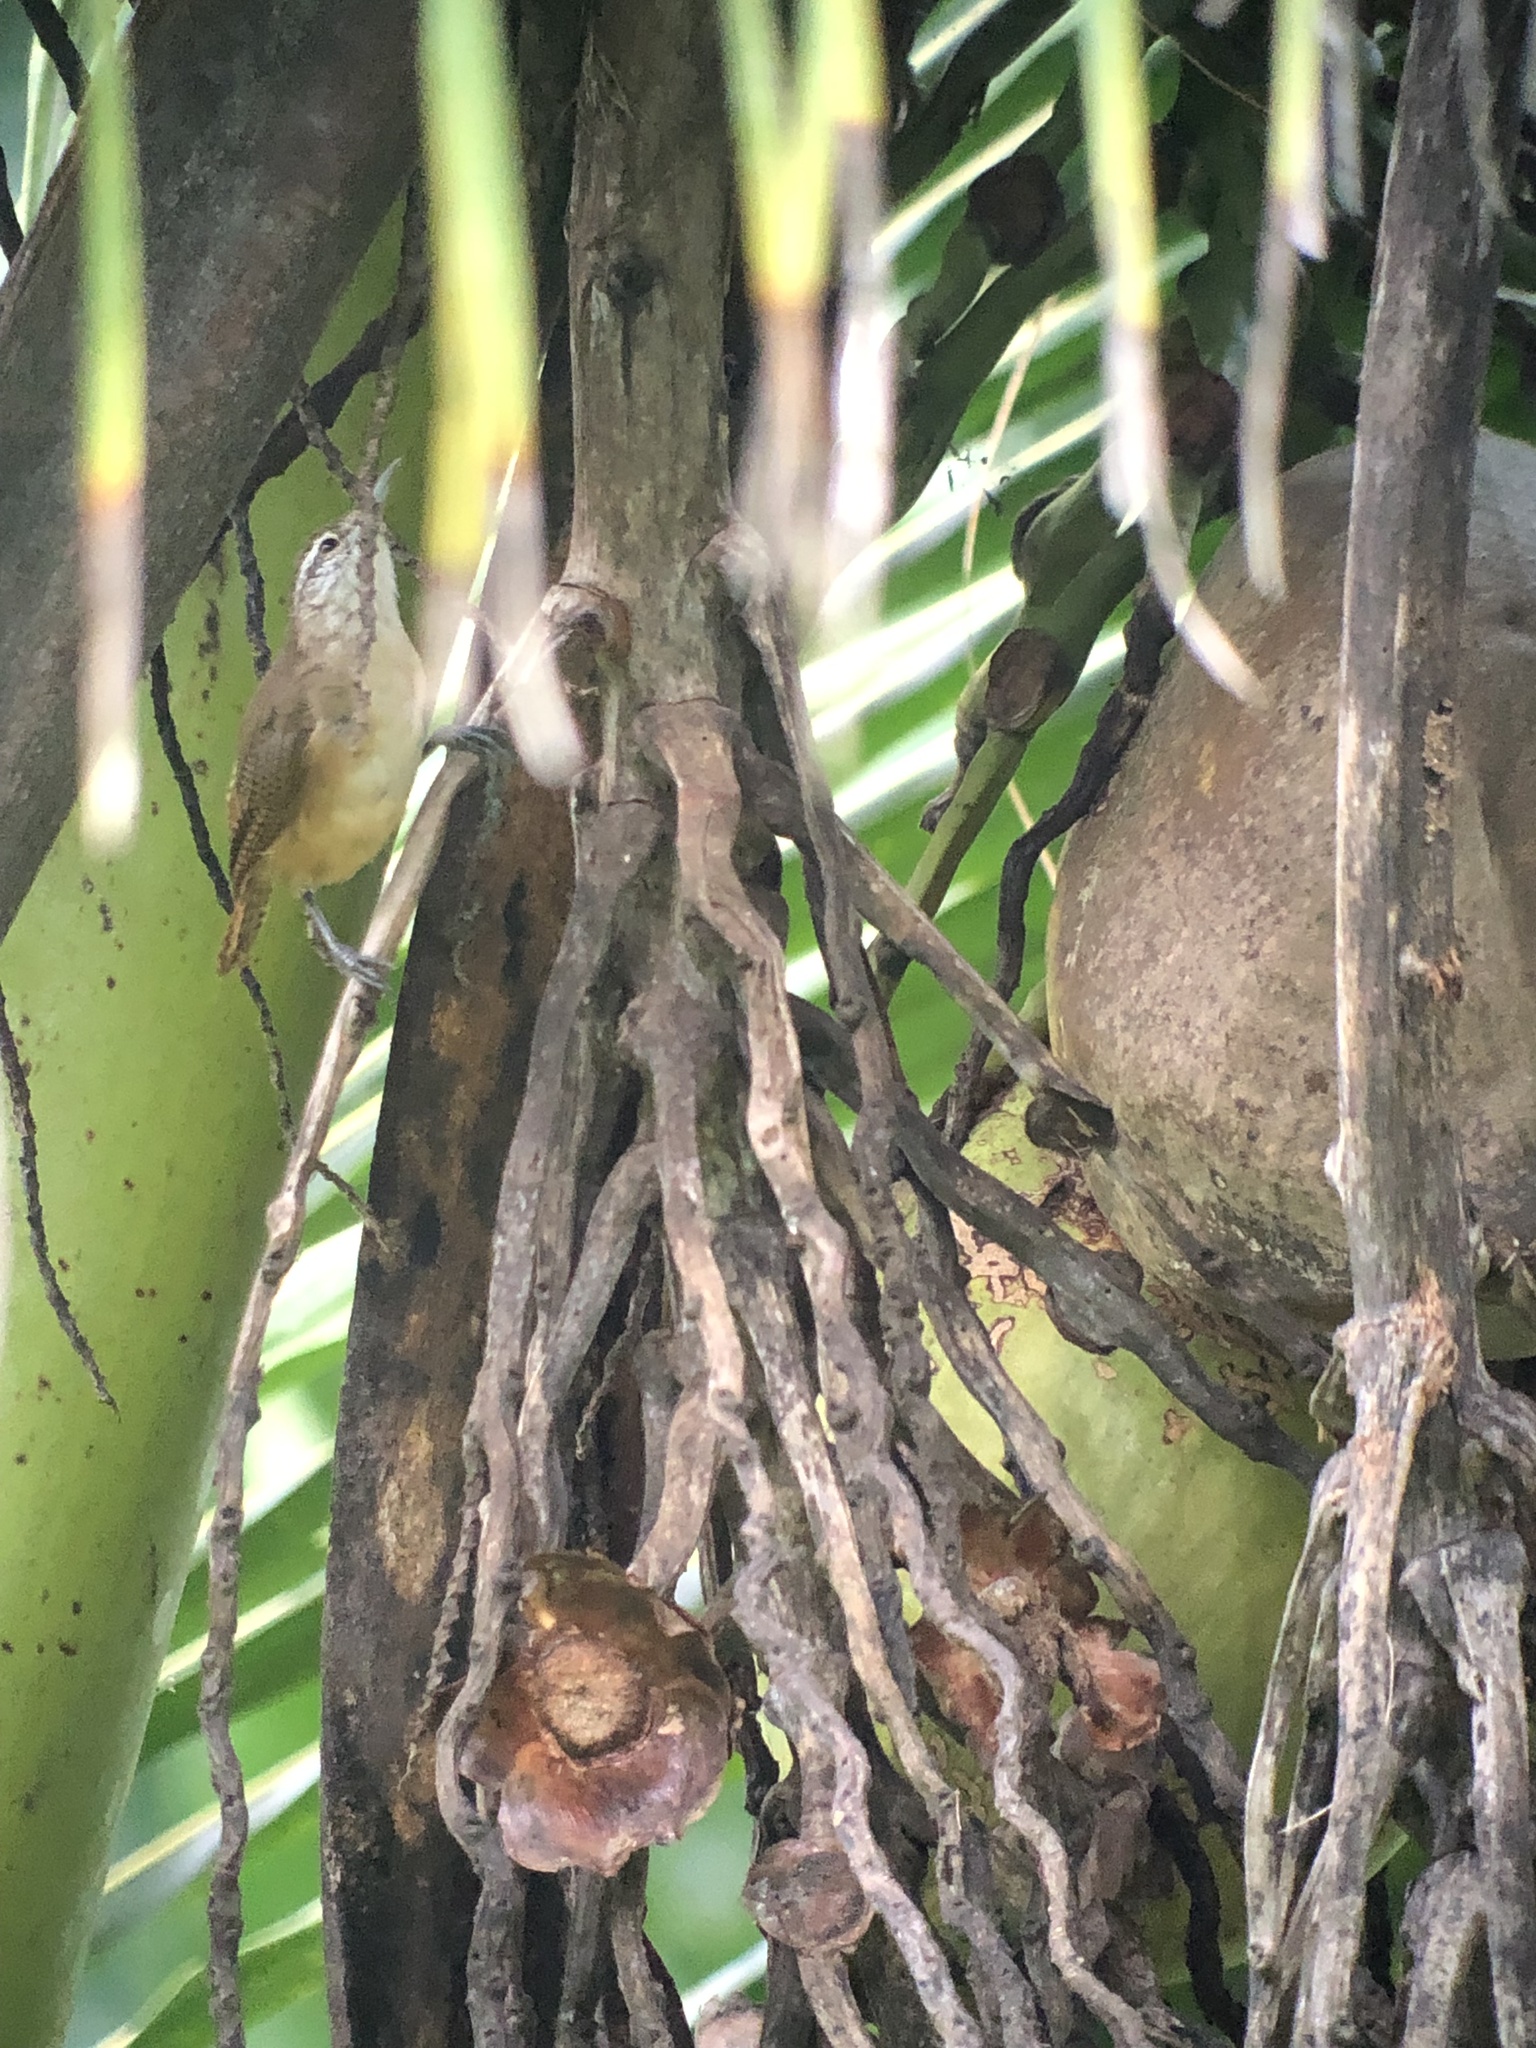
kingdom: Animalia
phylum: Chordata
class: Aves
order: Passeriformes
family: Troglodytidae
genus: Cantorchilus
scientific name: Cantorchilus leucotis
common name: Buff-breasted wren
